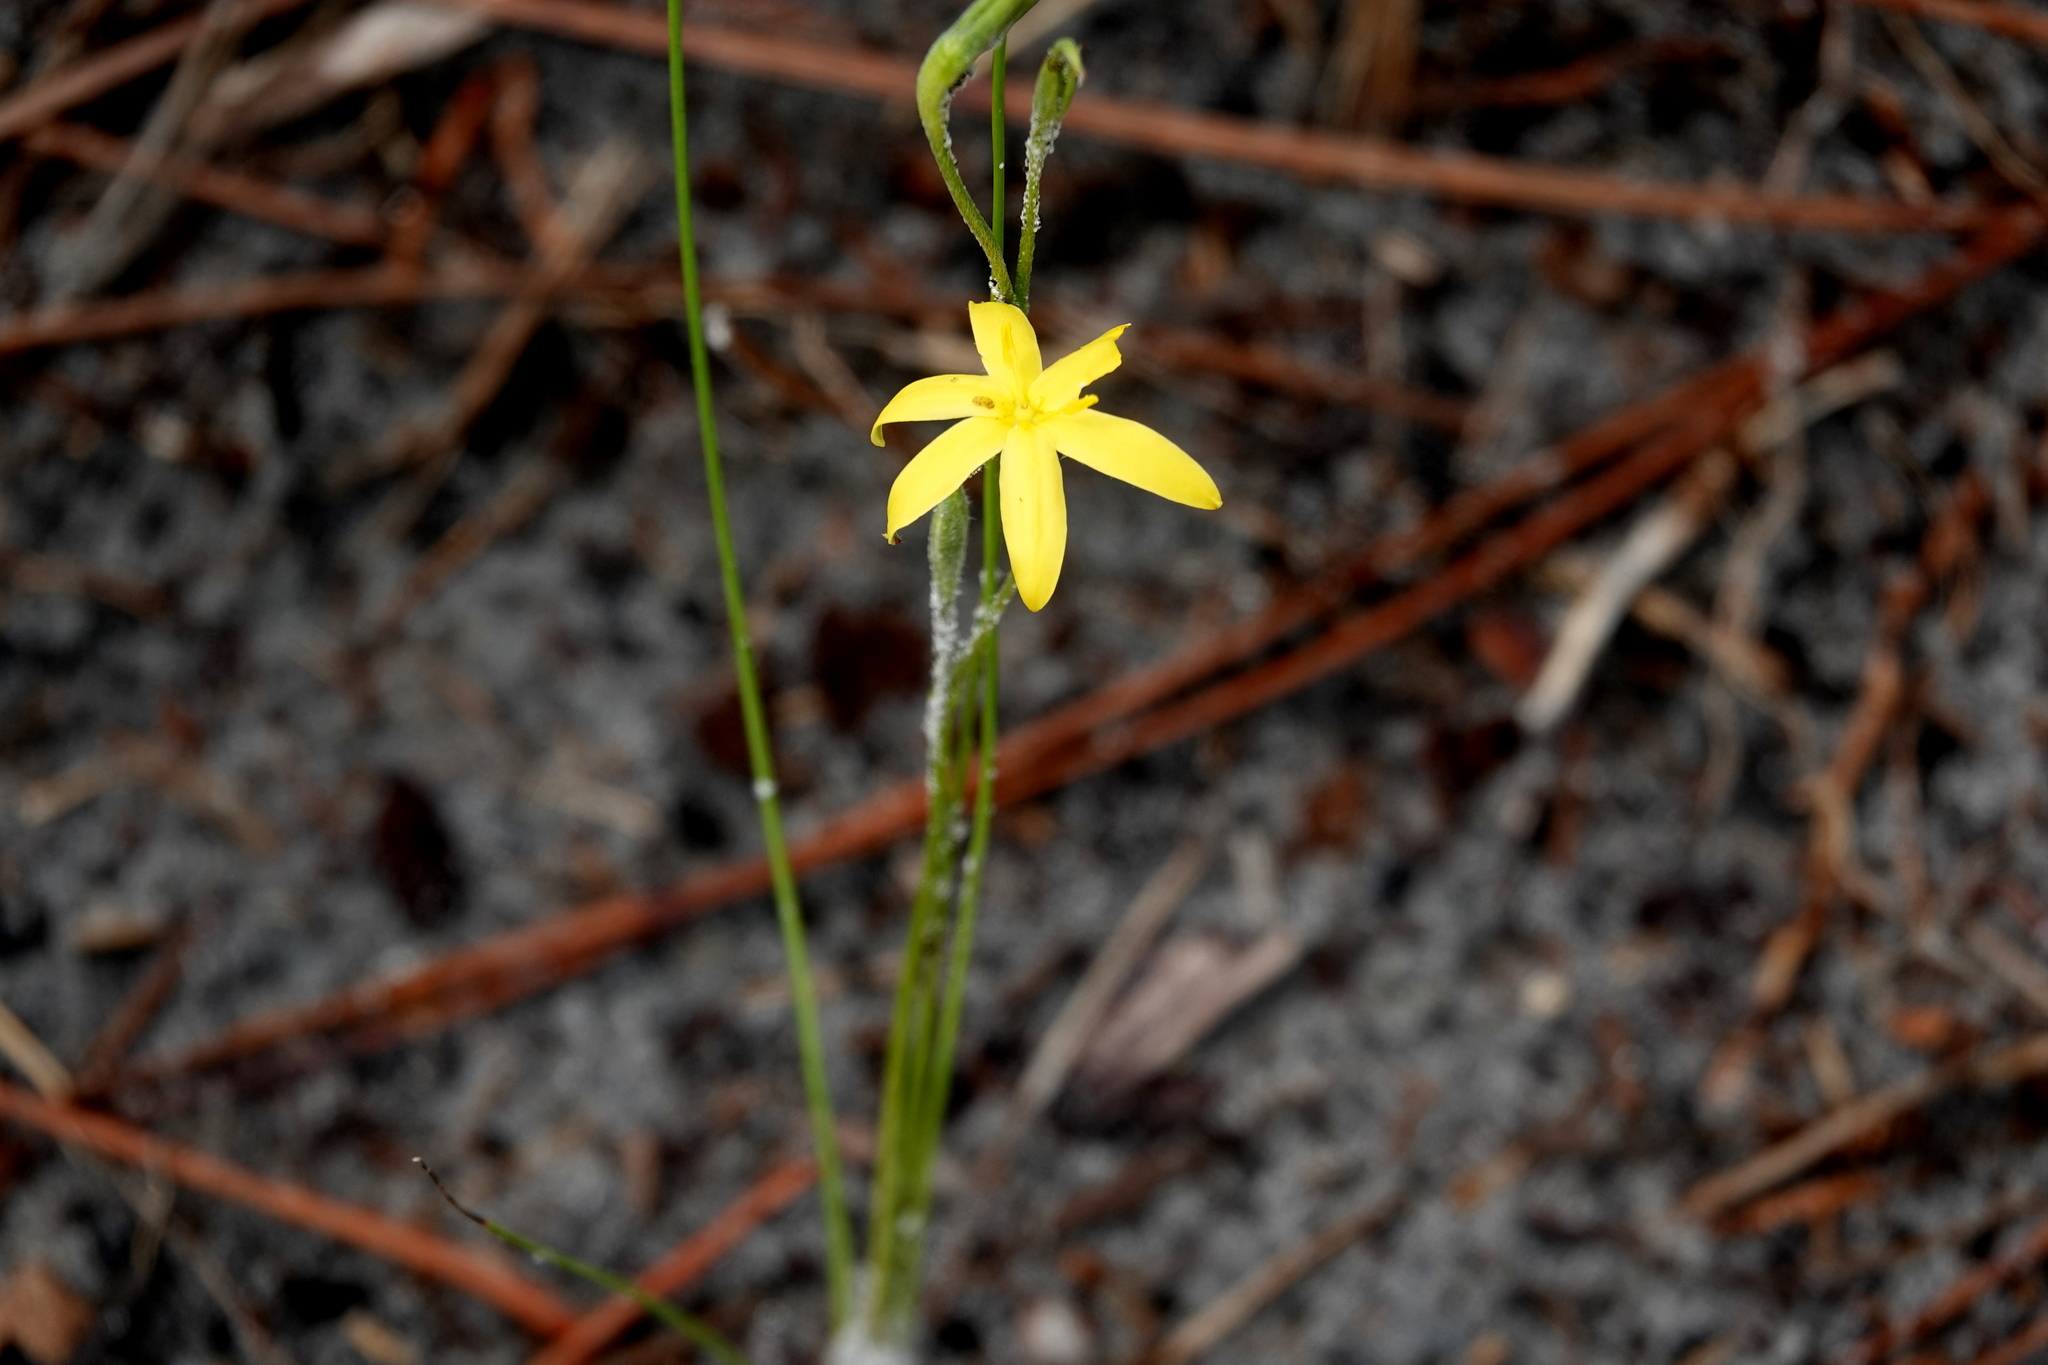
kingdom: Plantae
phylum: Tracheophyta
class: Liliopsida
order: Asparagales
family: Hypoxidaceae
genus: Hypoxis
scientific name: Hypoxis juncea
